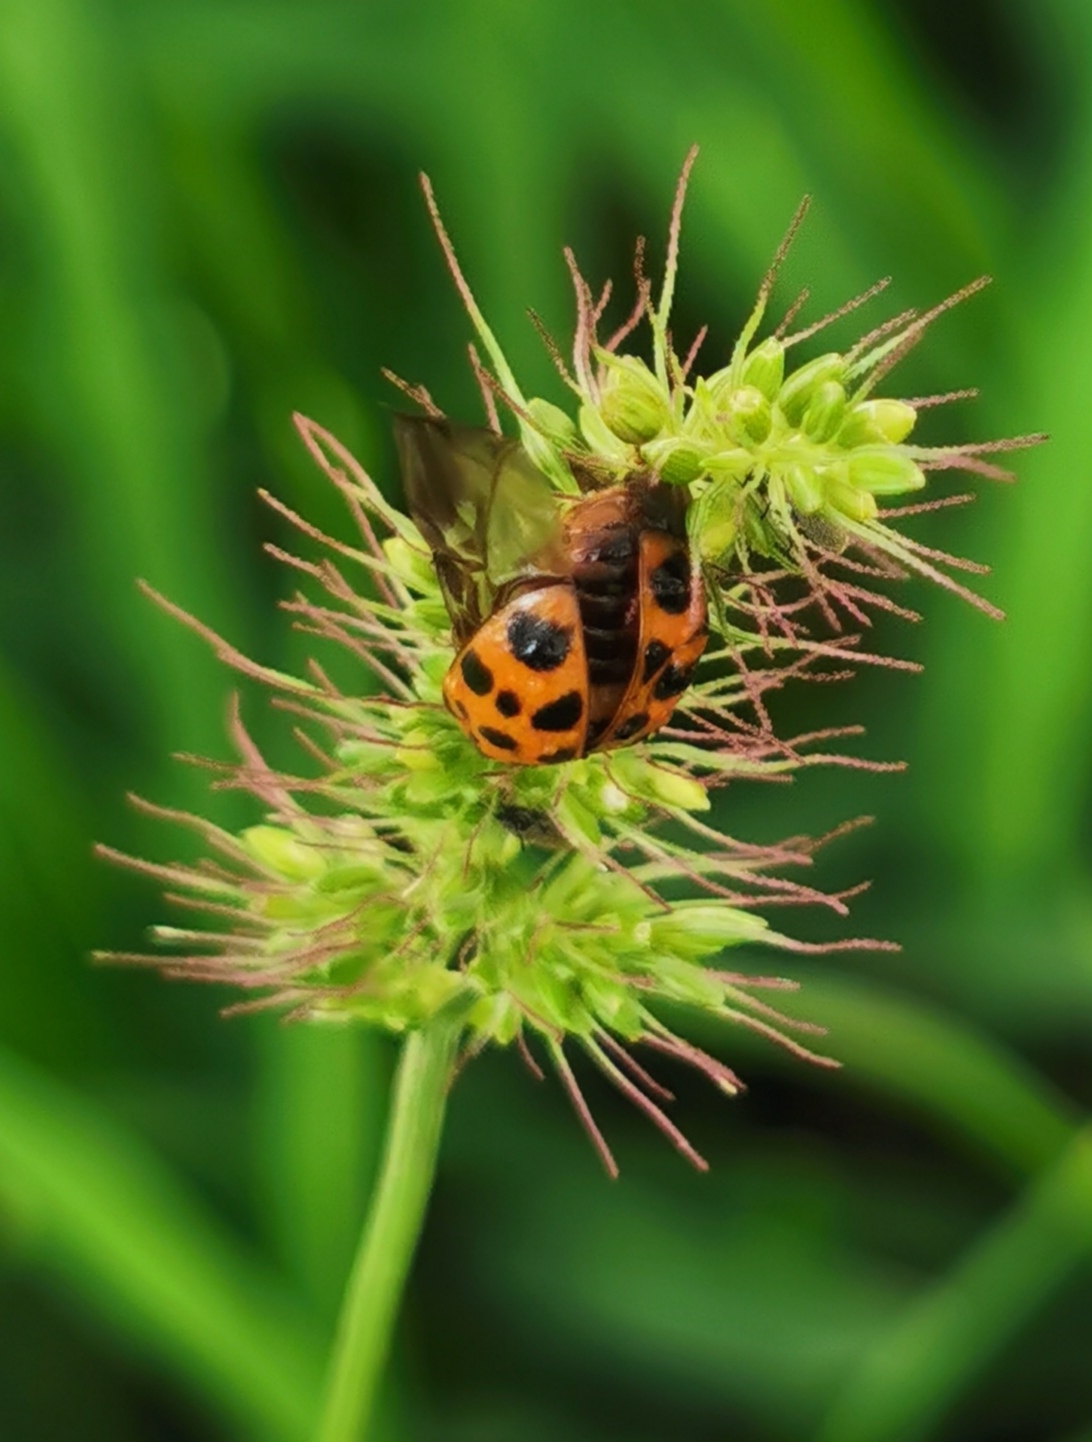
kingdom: Animalia
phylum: Arthropoda
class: Insecta
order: Coleoptera
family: Coccinellidae
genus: Harmonia
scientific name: Harmonia axyridis
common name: Harlequin ladybird
